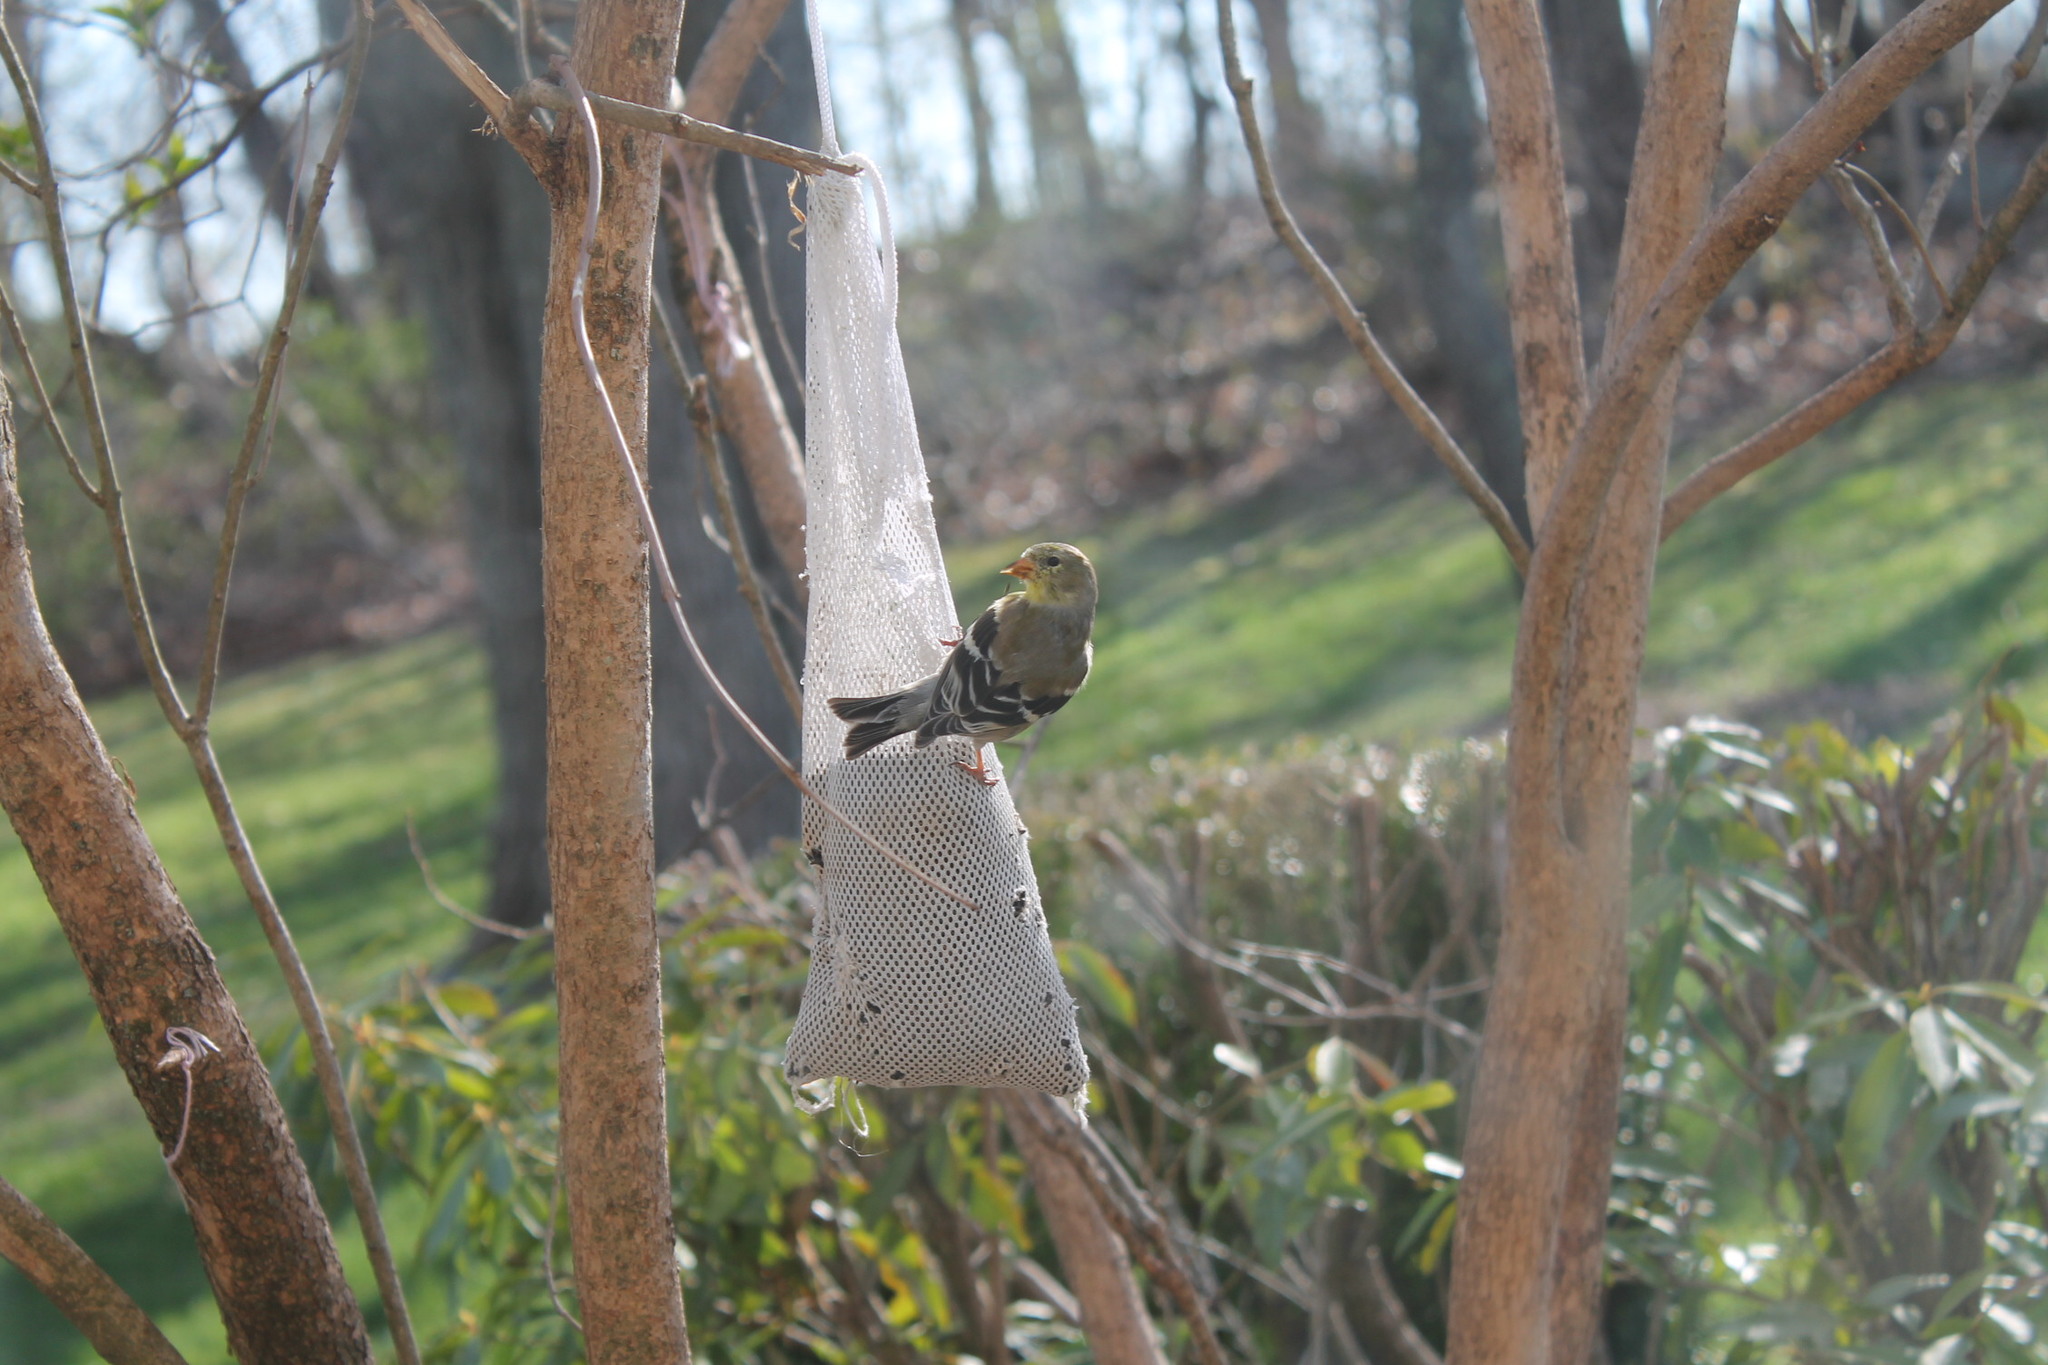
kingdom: Animalia
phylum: Chordata
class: Aves
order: Passeriformes
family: Fringillidae
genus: Spinus
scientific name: Spinus tristis
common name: American goldfinch
